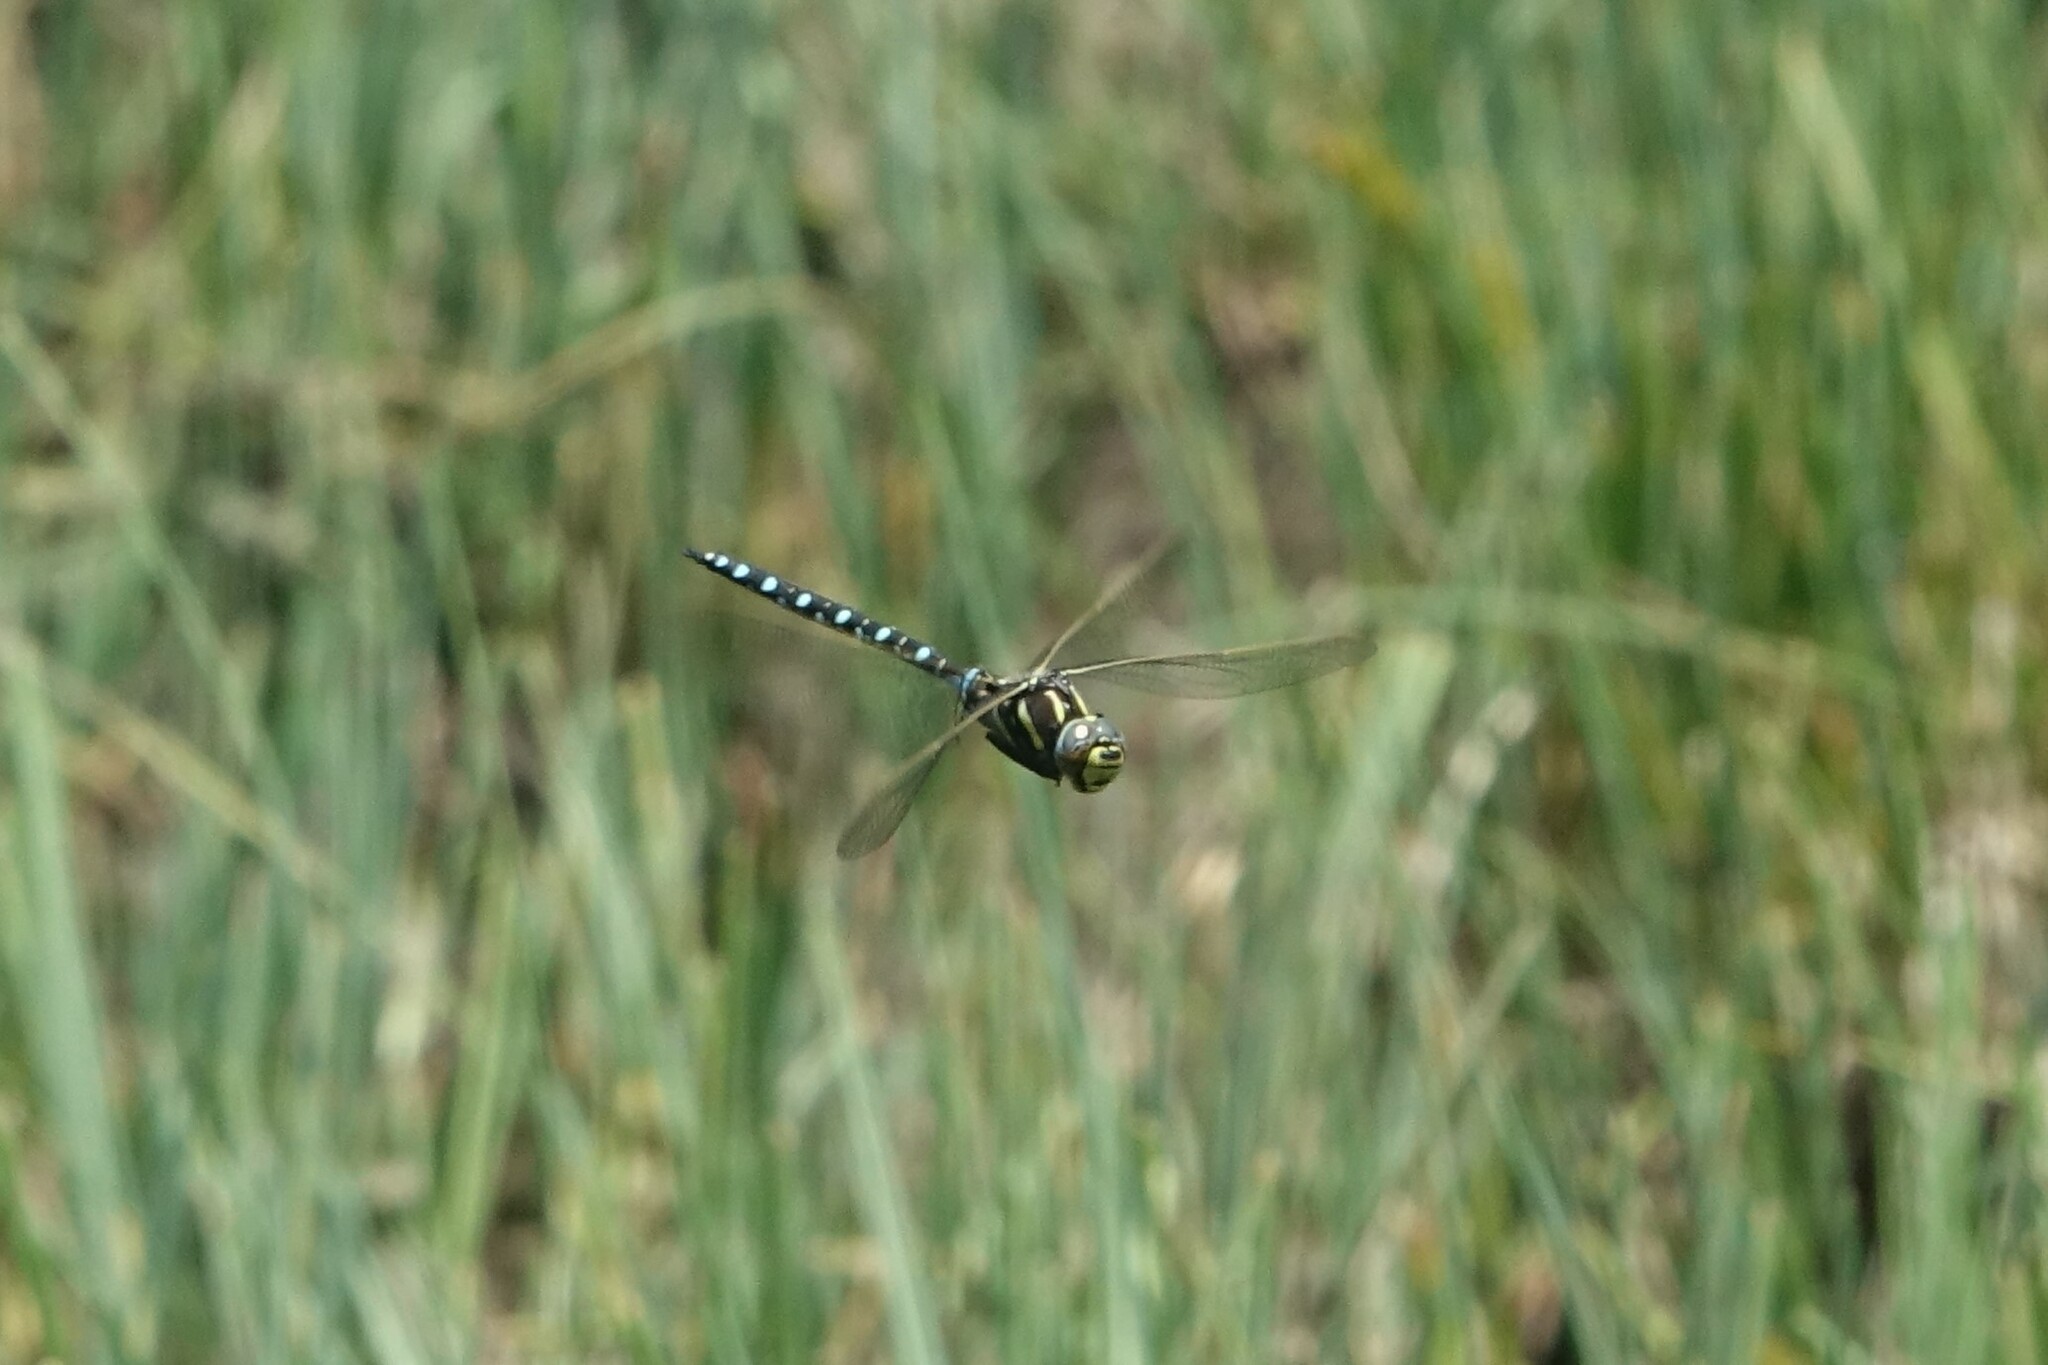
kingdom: Animalia
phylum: Arthropoda
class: Insecta
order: Odonata
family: Aeshnidae
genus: Aeshna
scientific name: Aeshna juncea
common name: Moorland hawker
